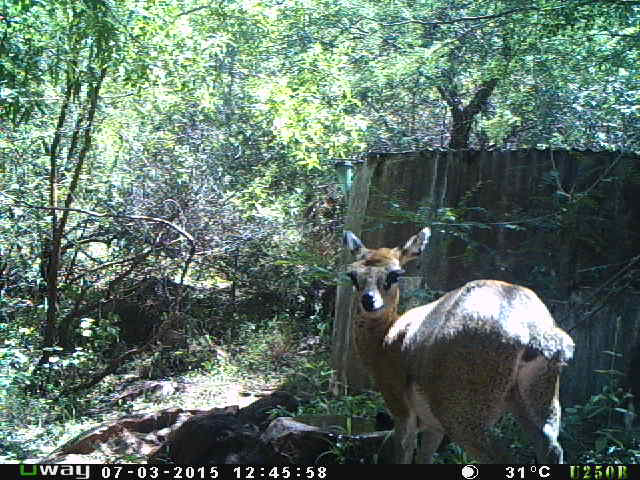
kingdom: Animalia
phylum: Chordata
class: Mammalia
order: Artiodactyla
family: Bovidae
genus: Oreotragus
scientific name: Oreotragus oreotragus
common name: Klipspringer
